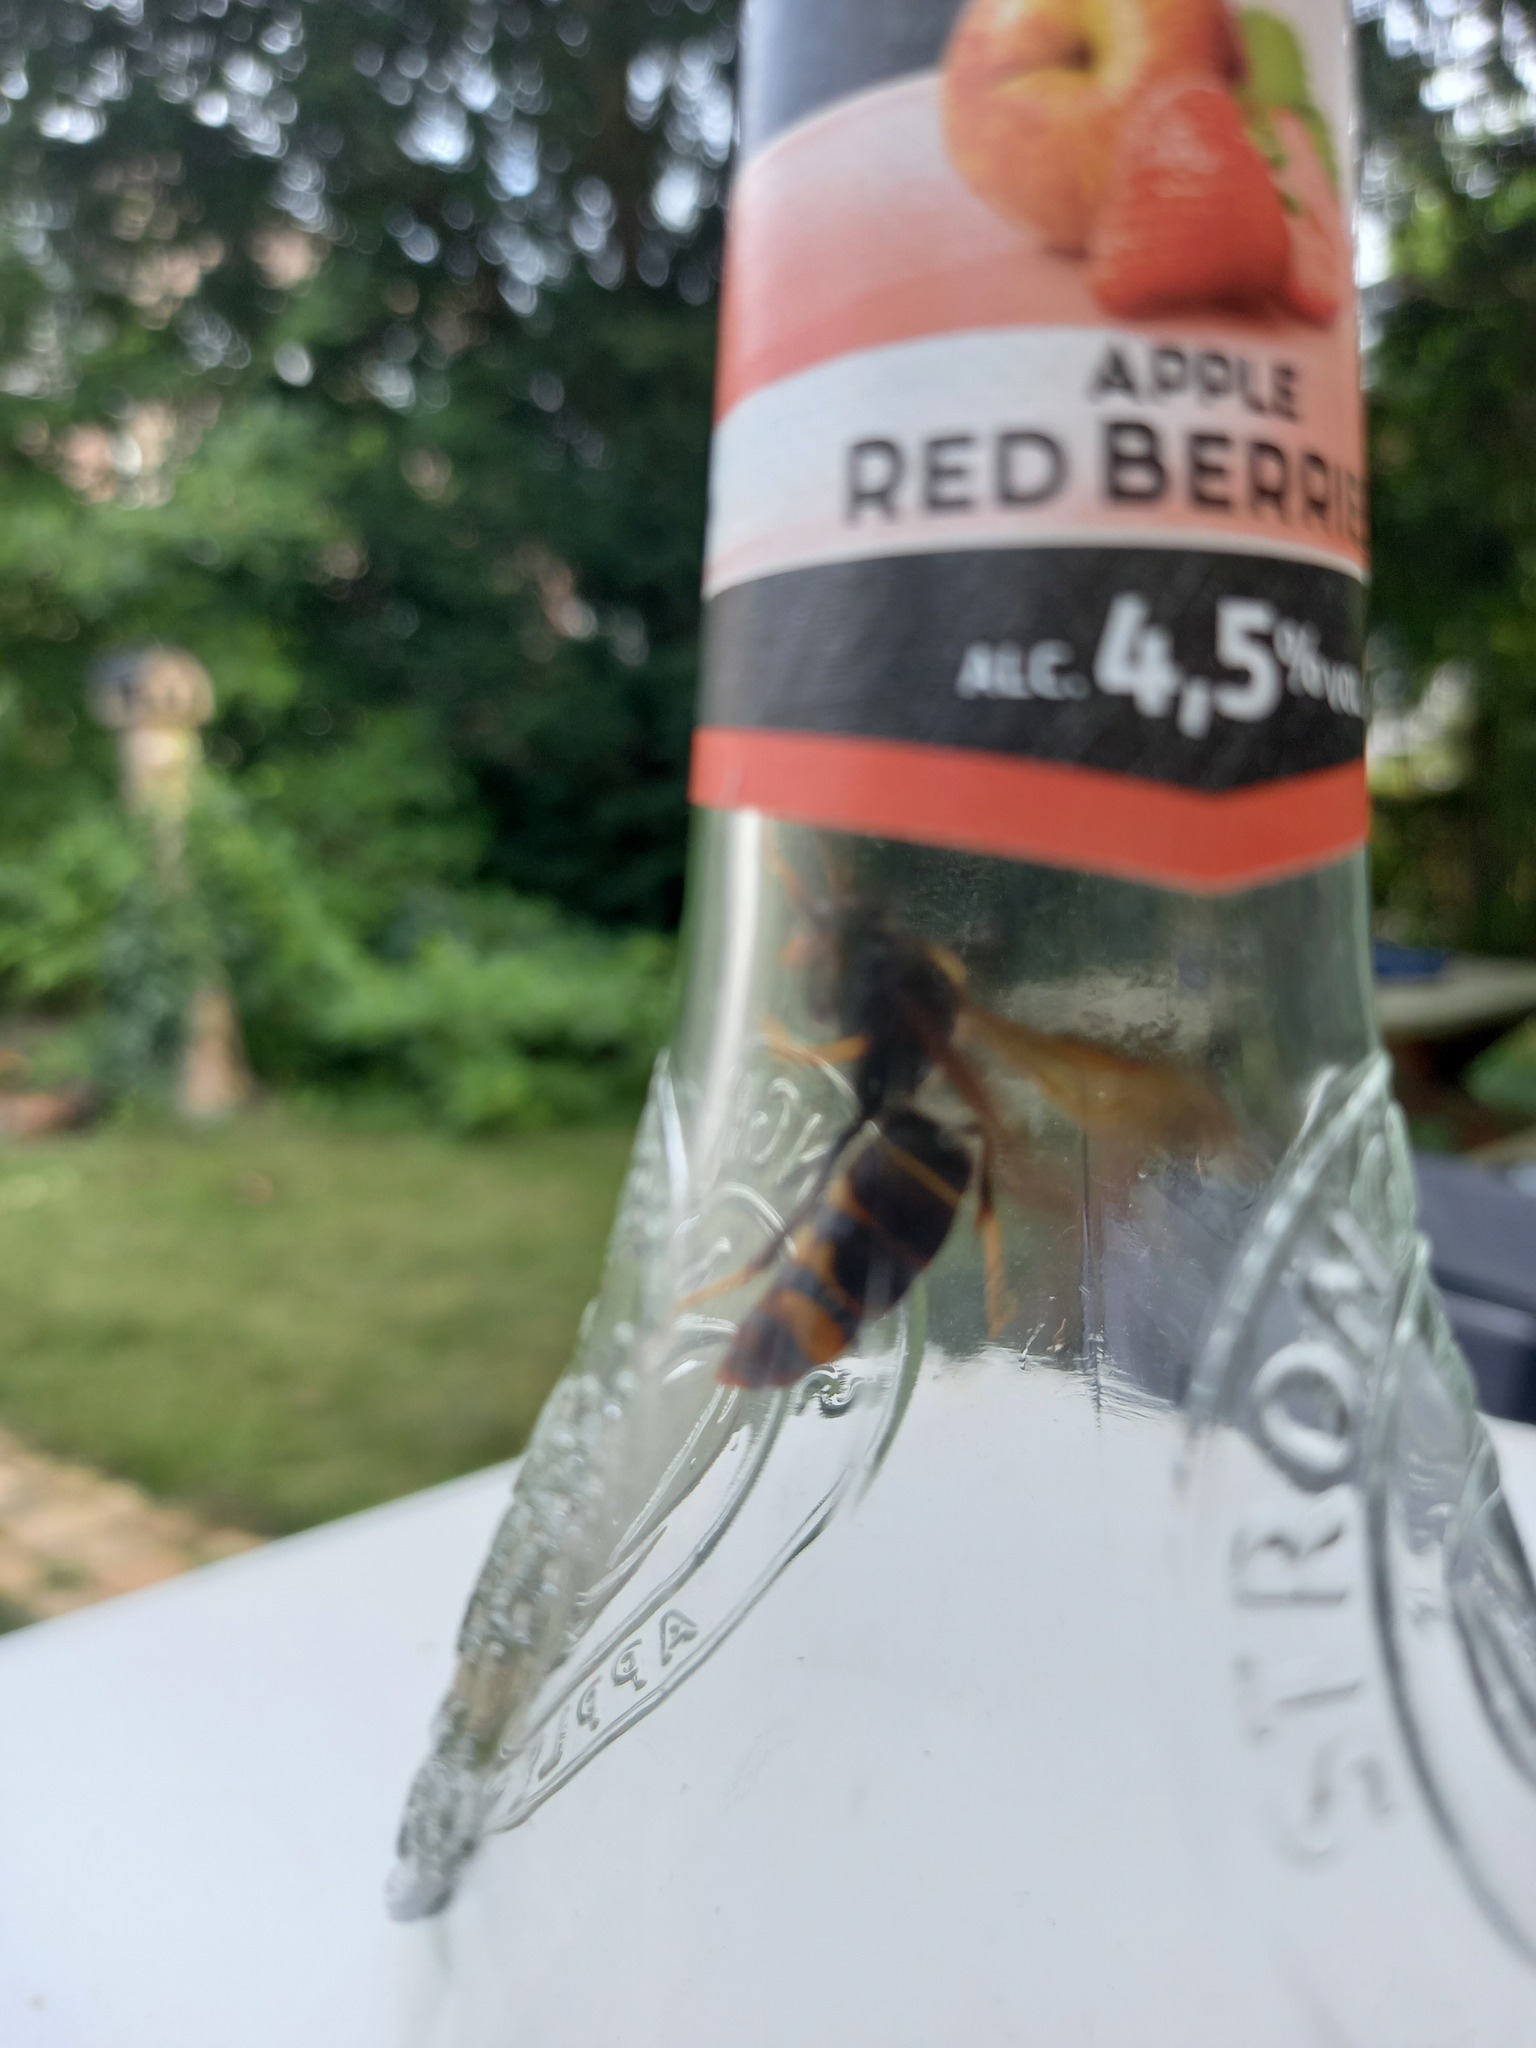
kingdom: Animalia
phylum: Arthropoda
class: Insecta
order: Hymenoptera
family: Vespidae
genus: Vespa
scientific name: Vespa velutina
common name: Asian hornet
